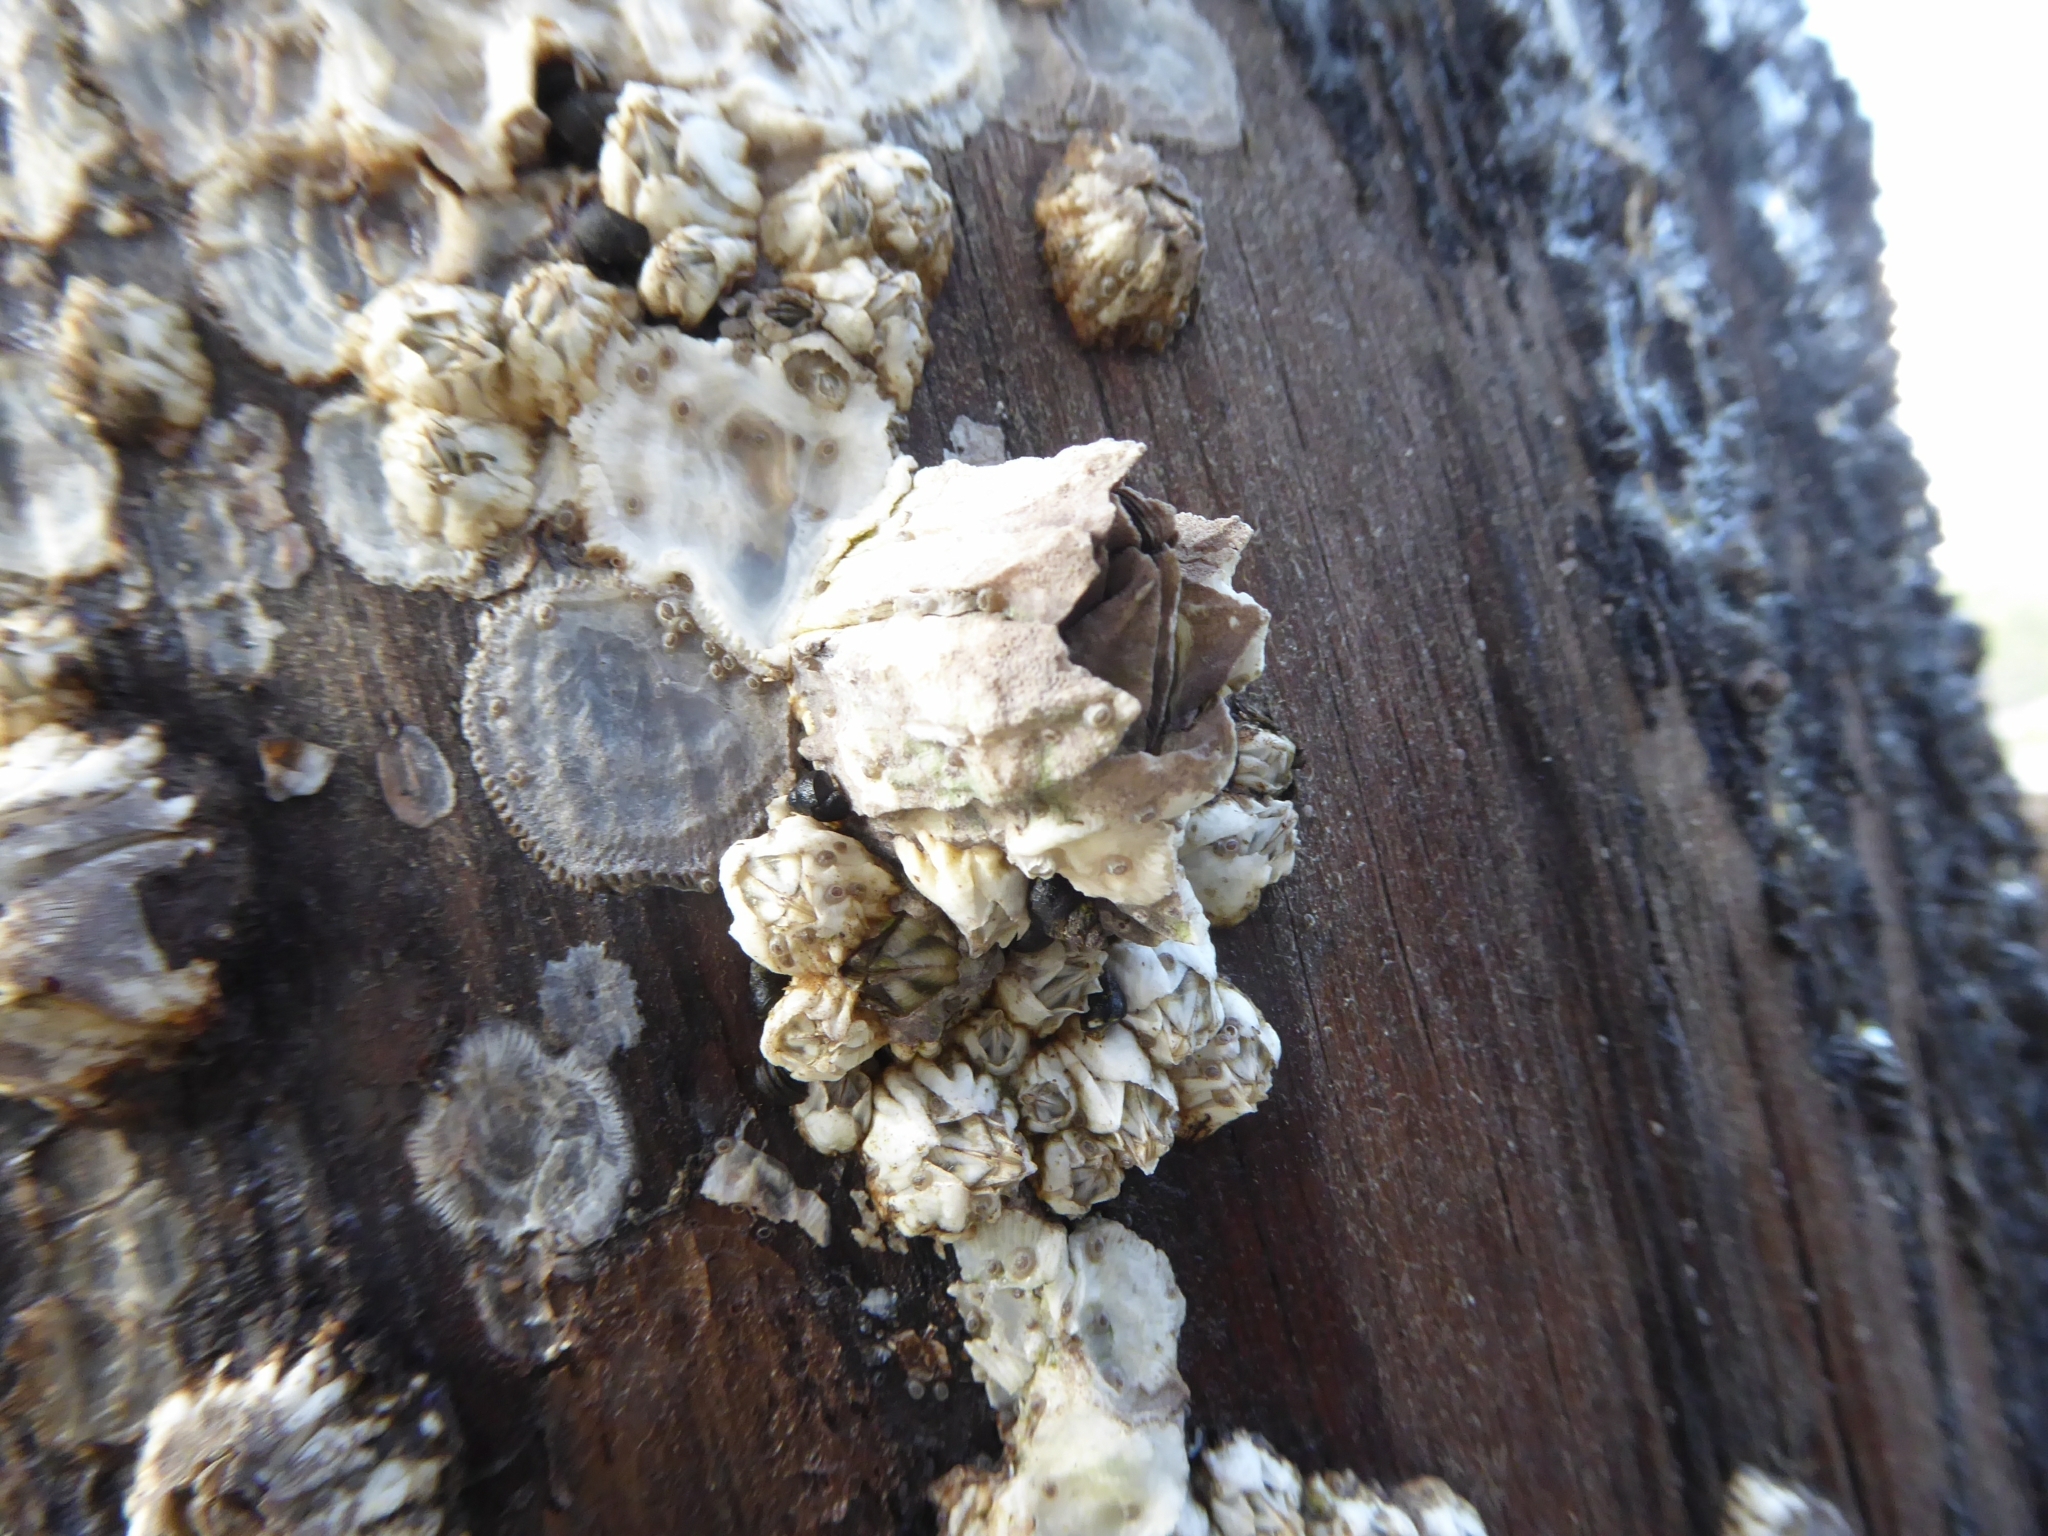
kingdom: Animalia
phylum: Arthropoda
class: Maxillopoda
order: Sessilia
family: Balanidae
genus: Balanus
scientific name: Balanus glandula
